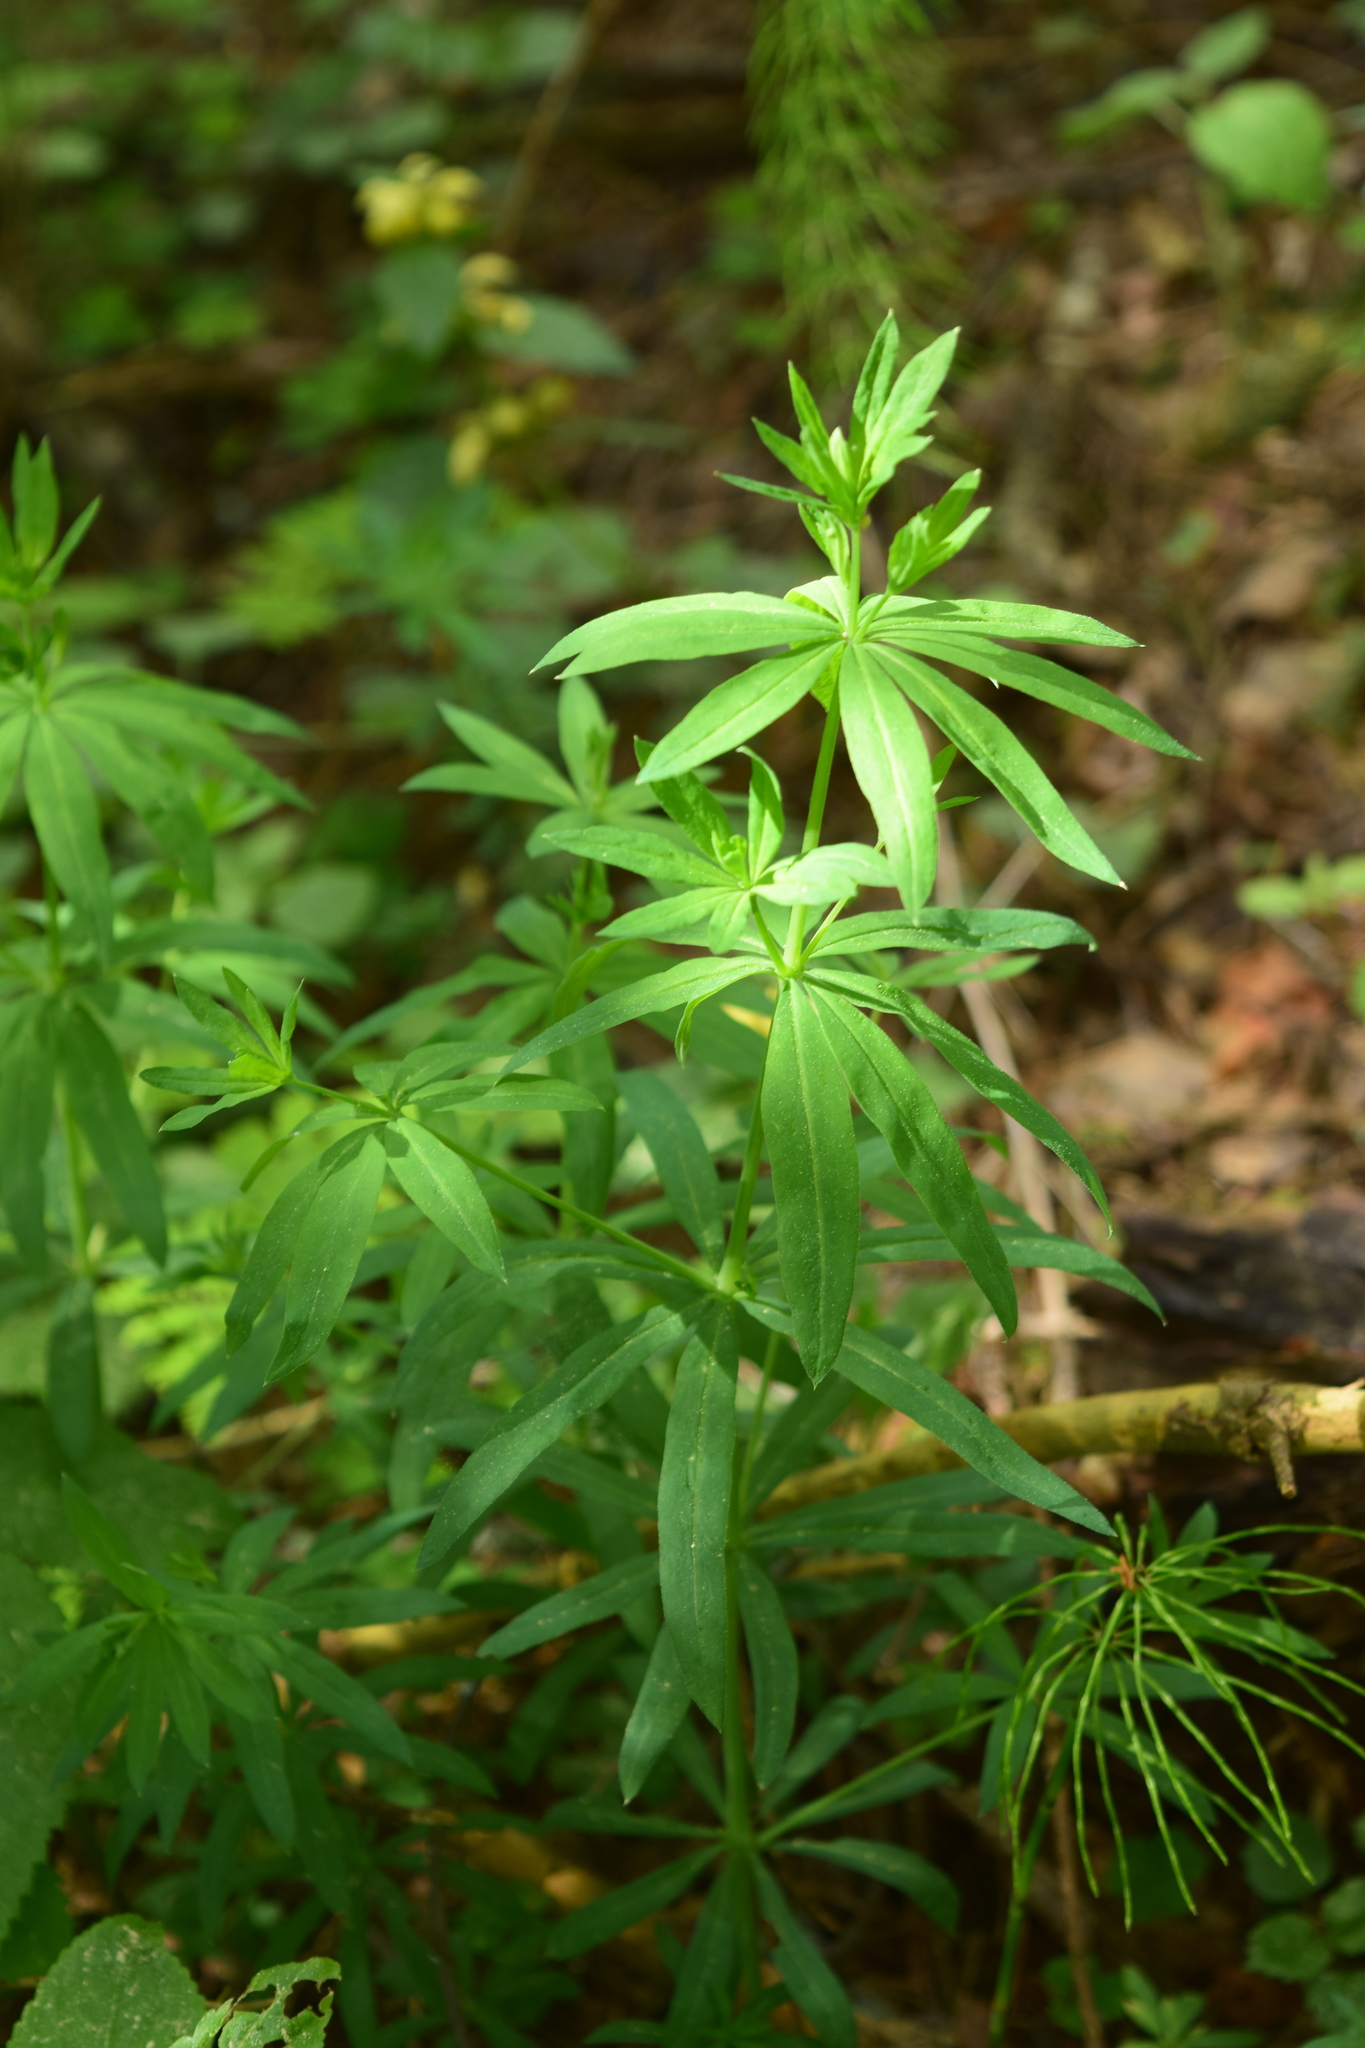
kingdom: Plantae
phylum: Tracheophyta
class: Magnoliopsida
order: Gentianales
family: Rubiaceae
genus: Galium
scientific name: Galium intermedium
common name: Bedstraw
